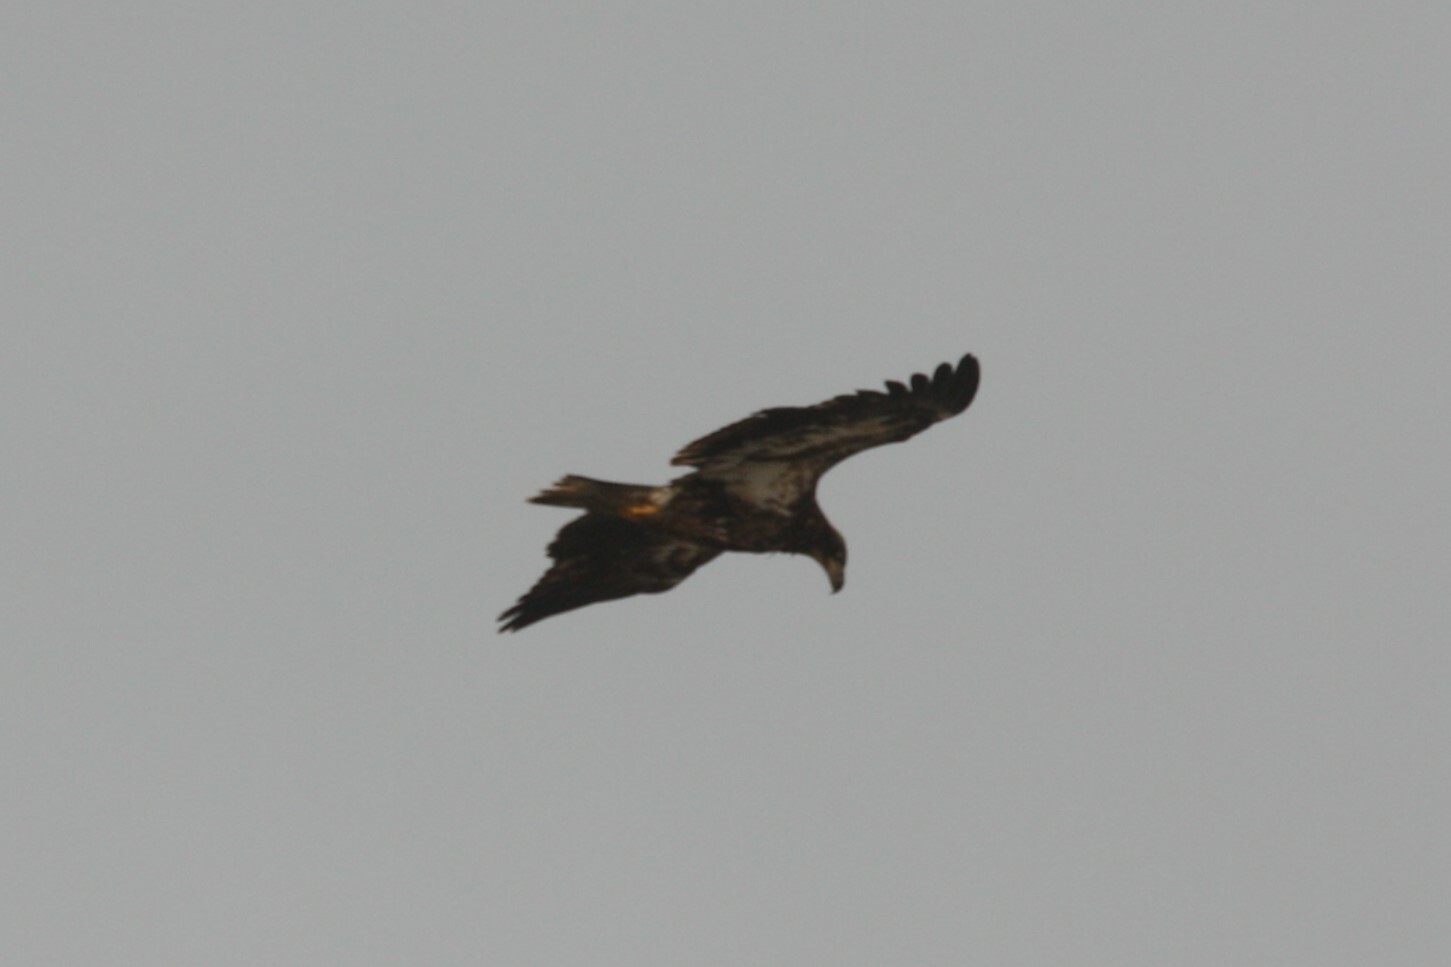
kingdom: Animalia
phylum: Chordata
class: Aves
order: Accipitriformes
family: Accipitridae
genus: Haliaeetus
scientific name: Haliaeetus leucocephalus
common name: Bald eagle
